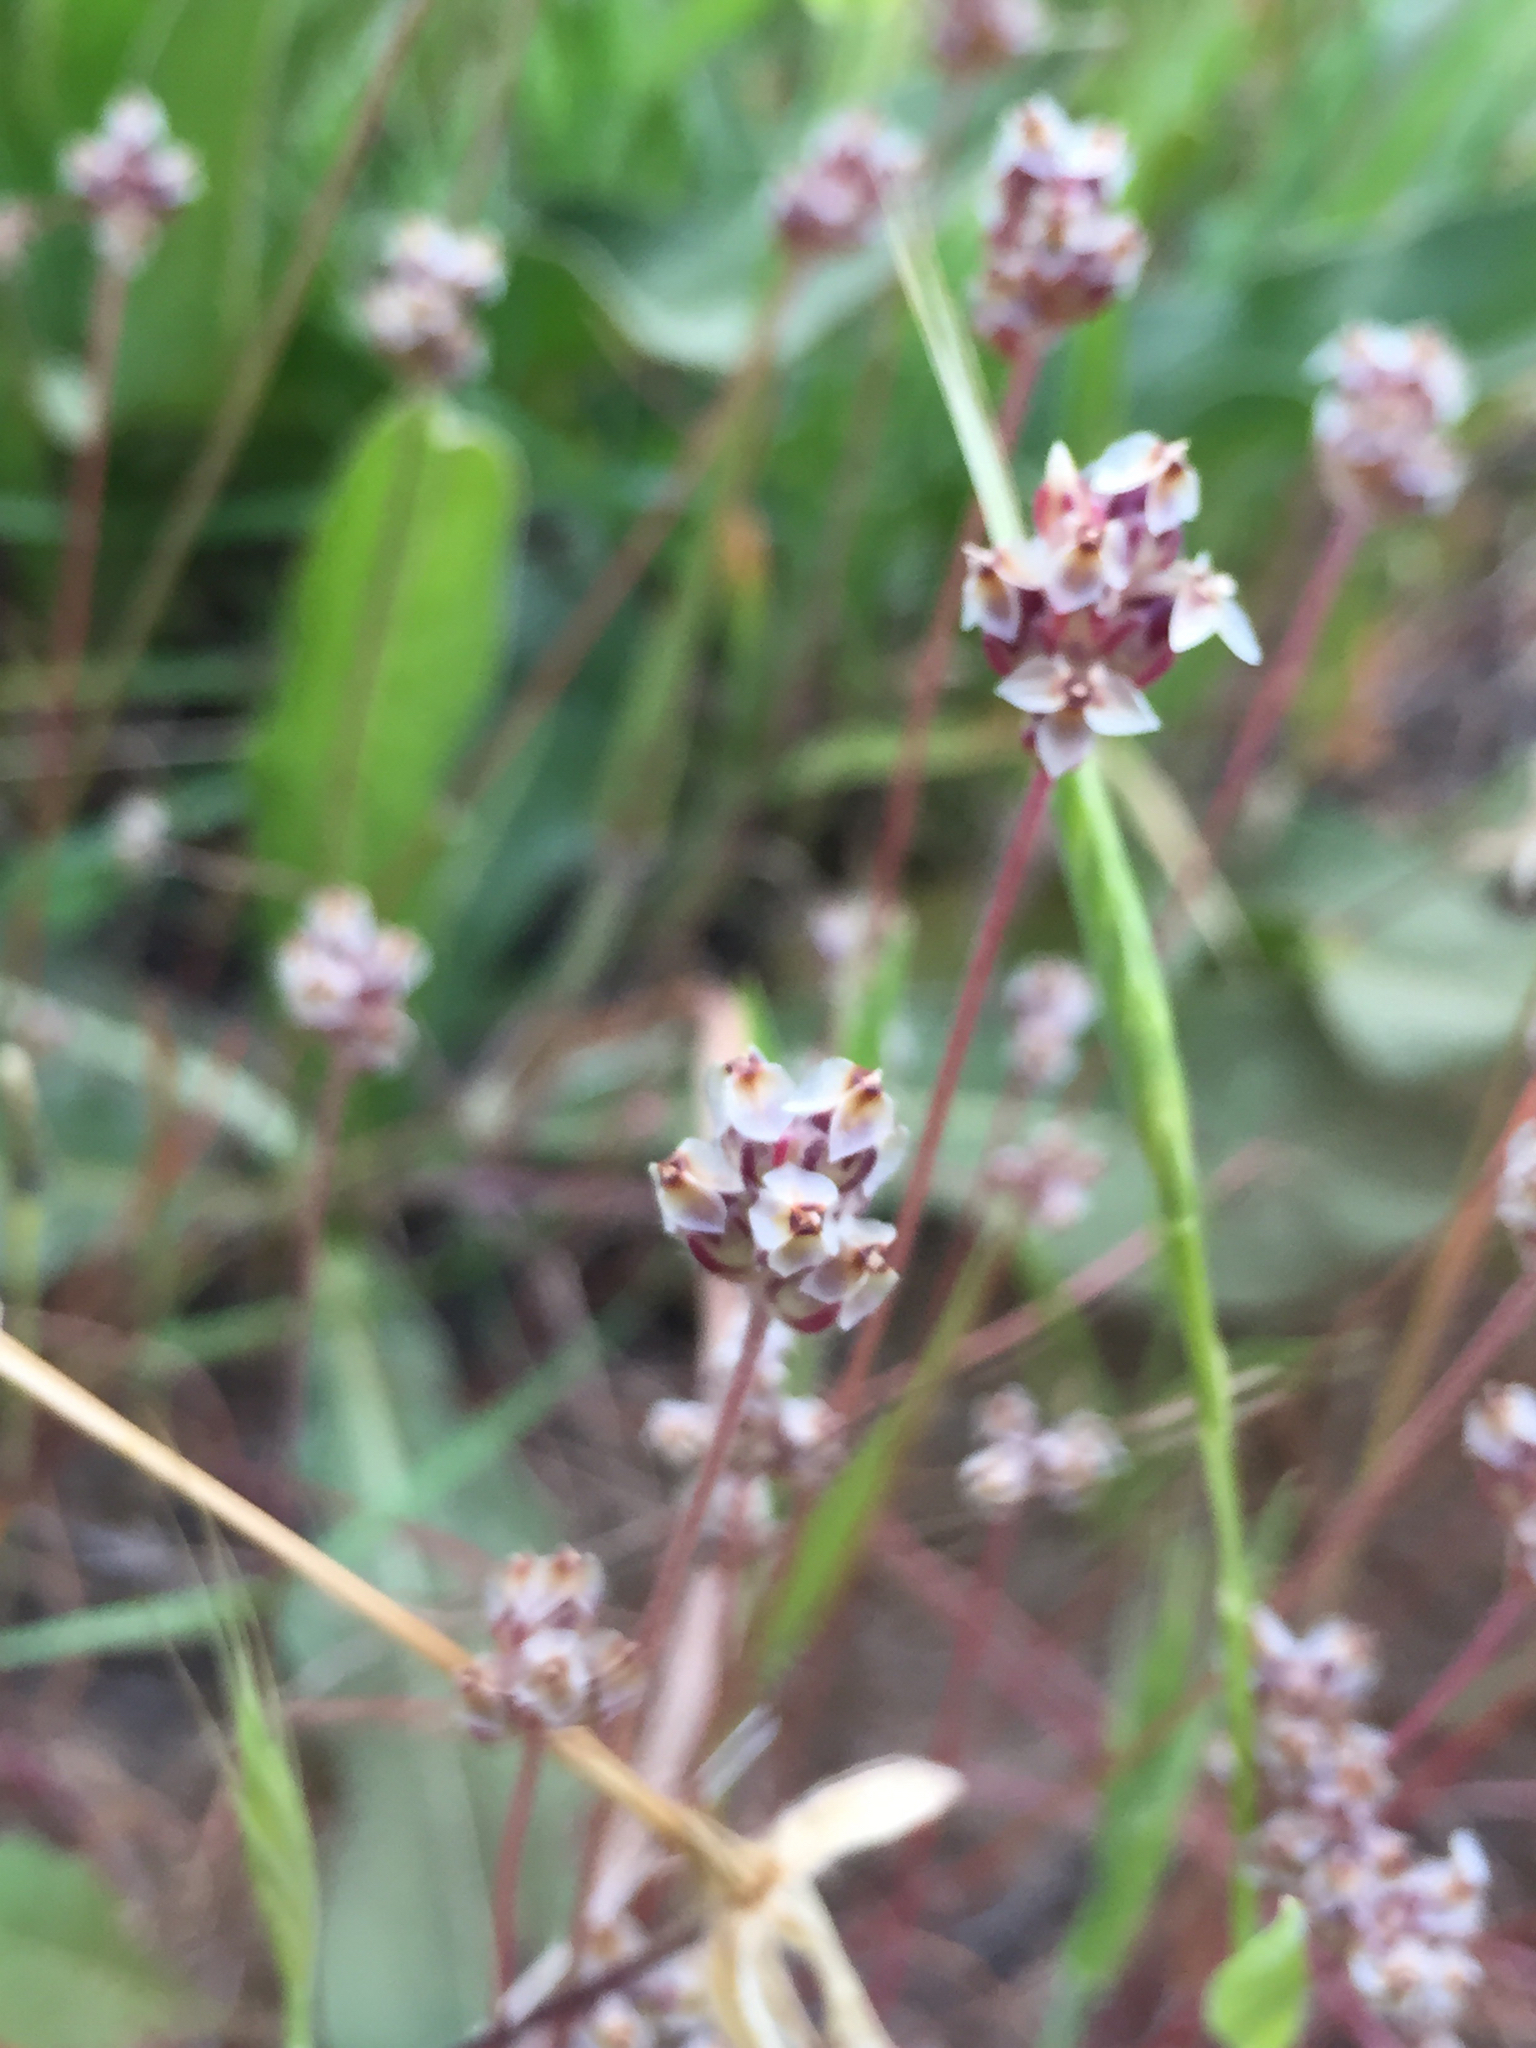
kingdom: Plantae
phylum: Tracheophyta
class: Magnoliopsida
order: Lamiales
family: Plantaginaceae
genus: Plantago
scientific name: Plantago erecta
